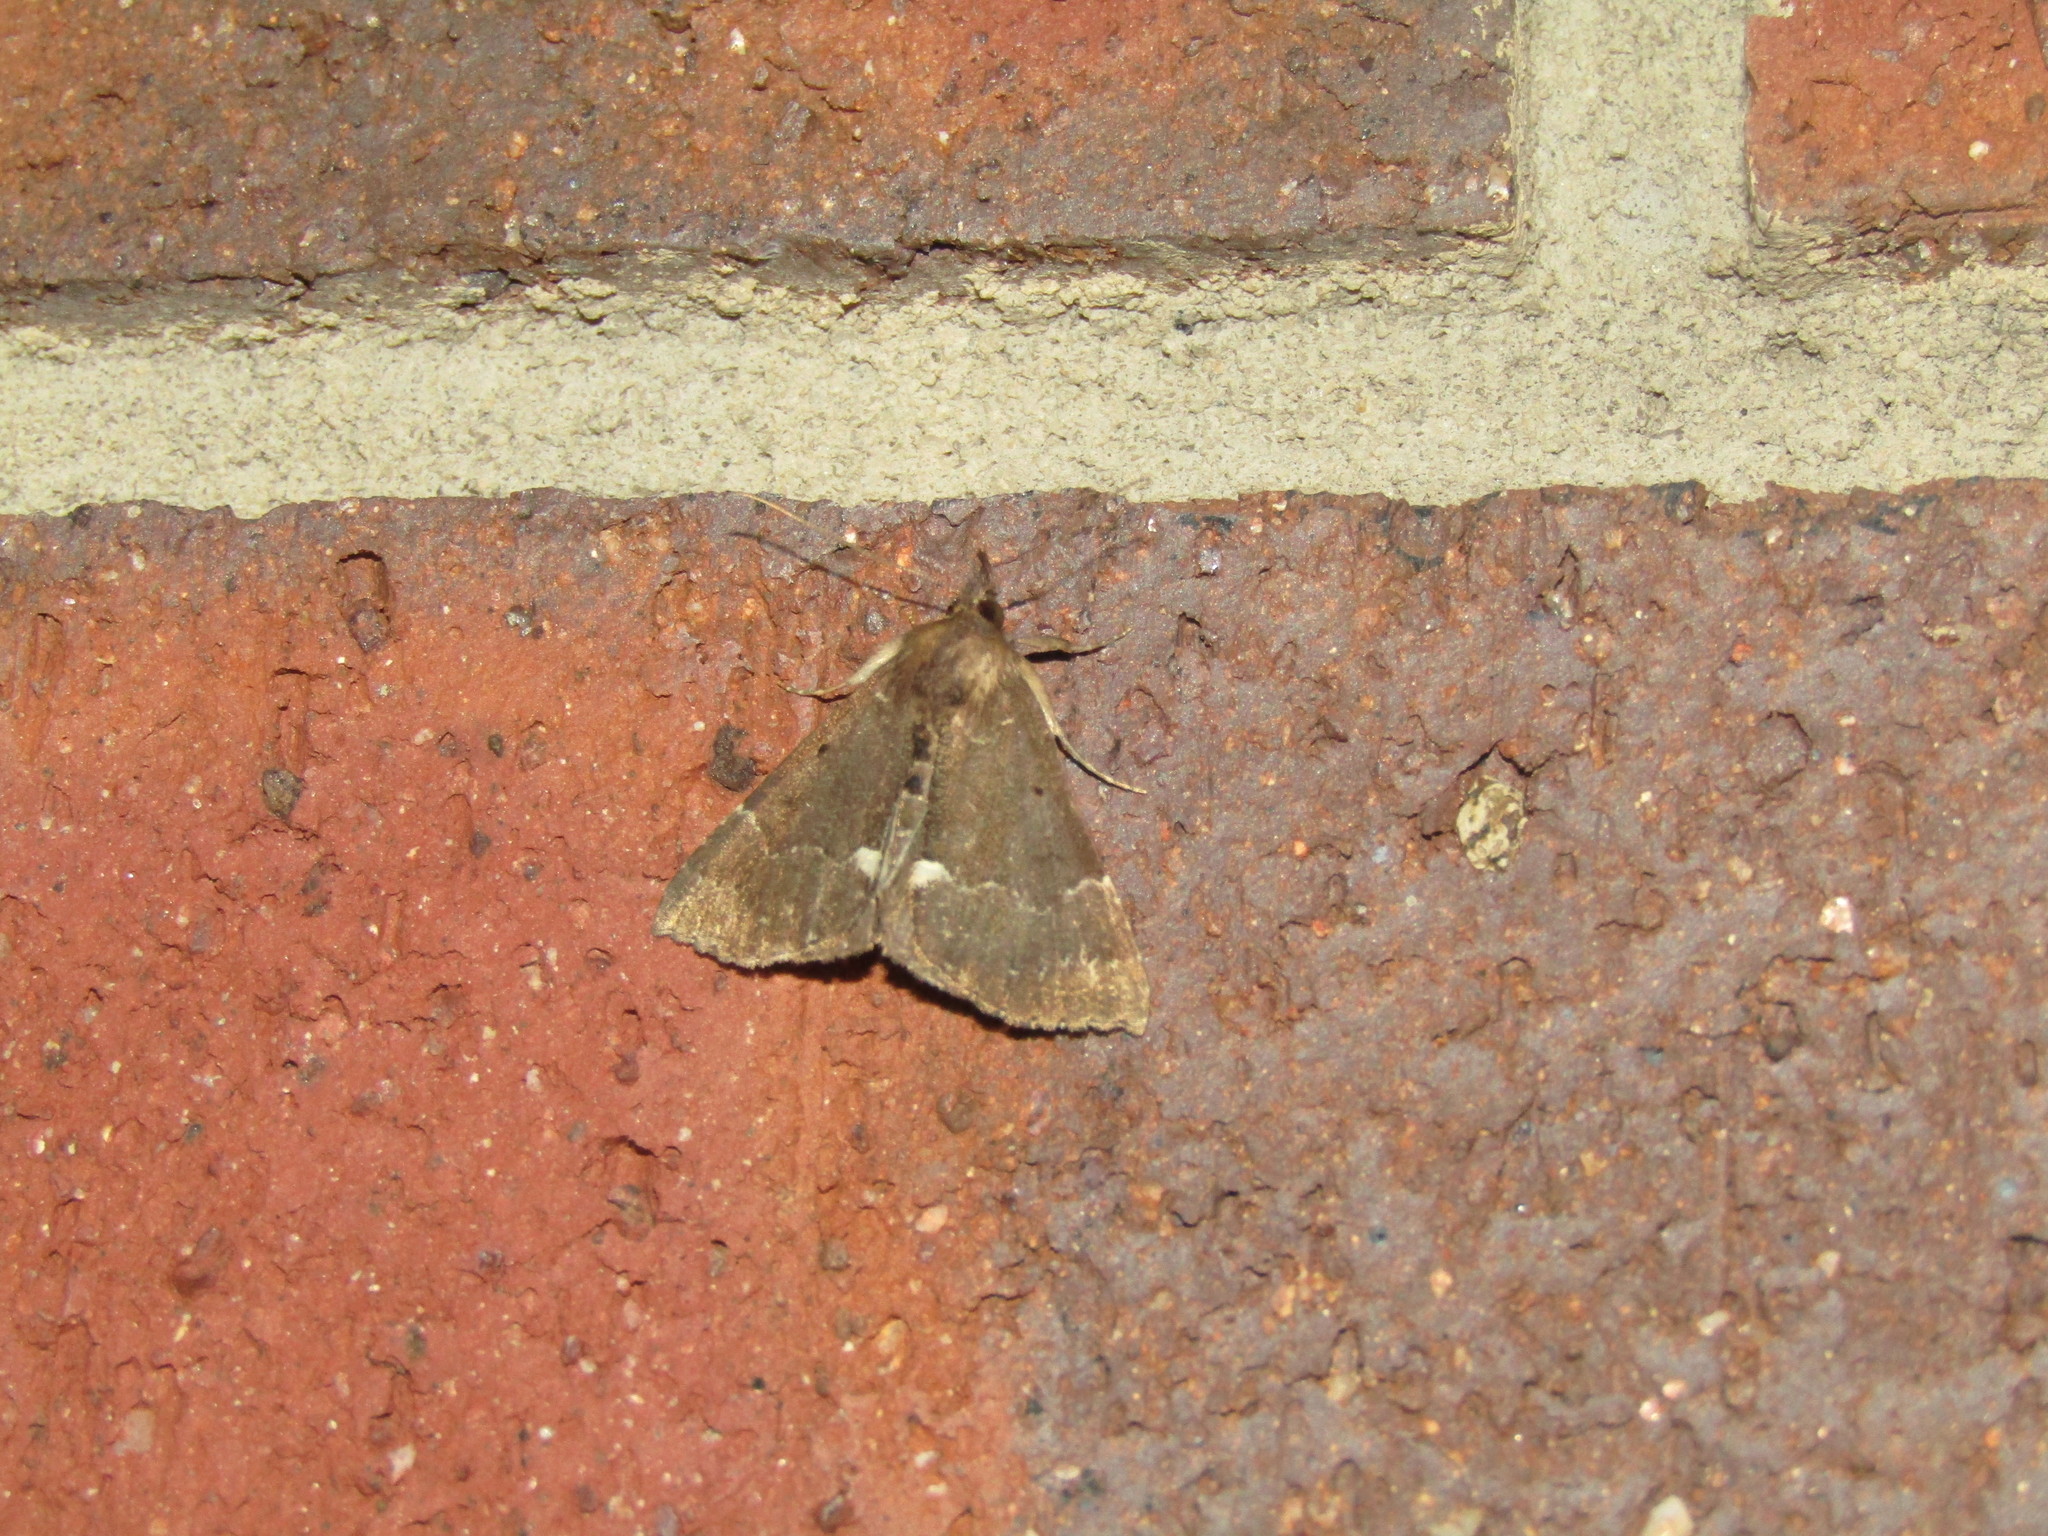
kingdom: Animalia
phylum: Arthropoda
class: Insecta
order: Lepidoptera
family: Erebidae
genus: Hypena
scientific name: Hypena bijugalis
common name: Dimorphic bomolocha moth
